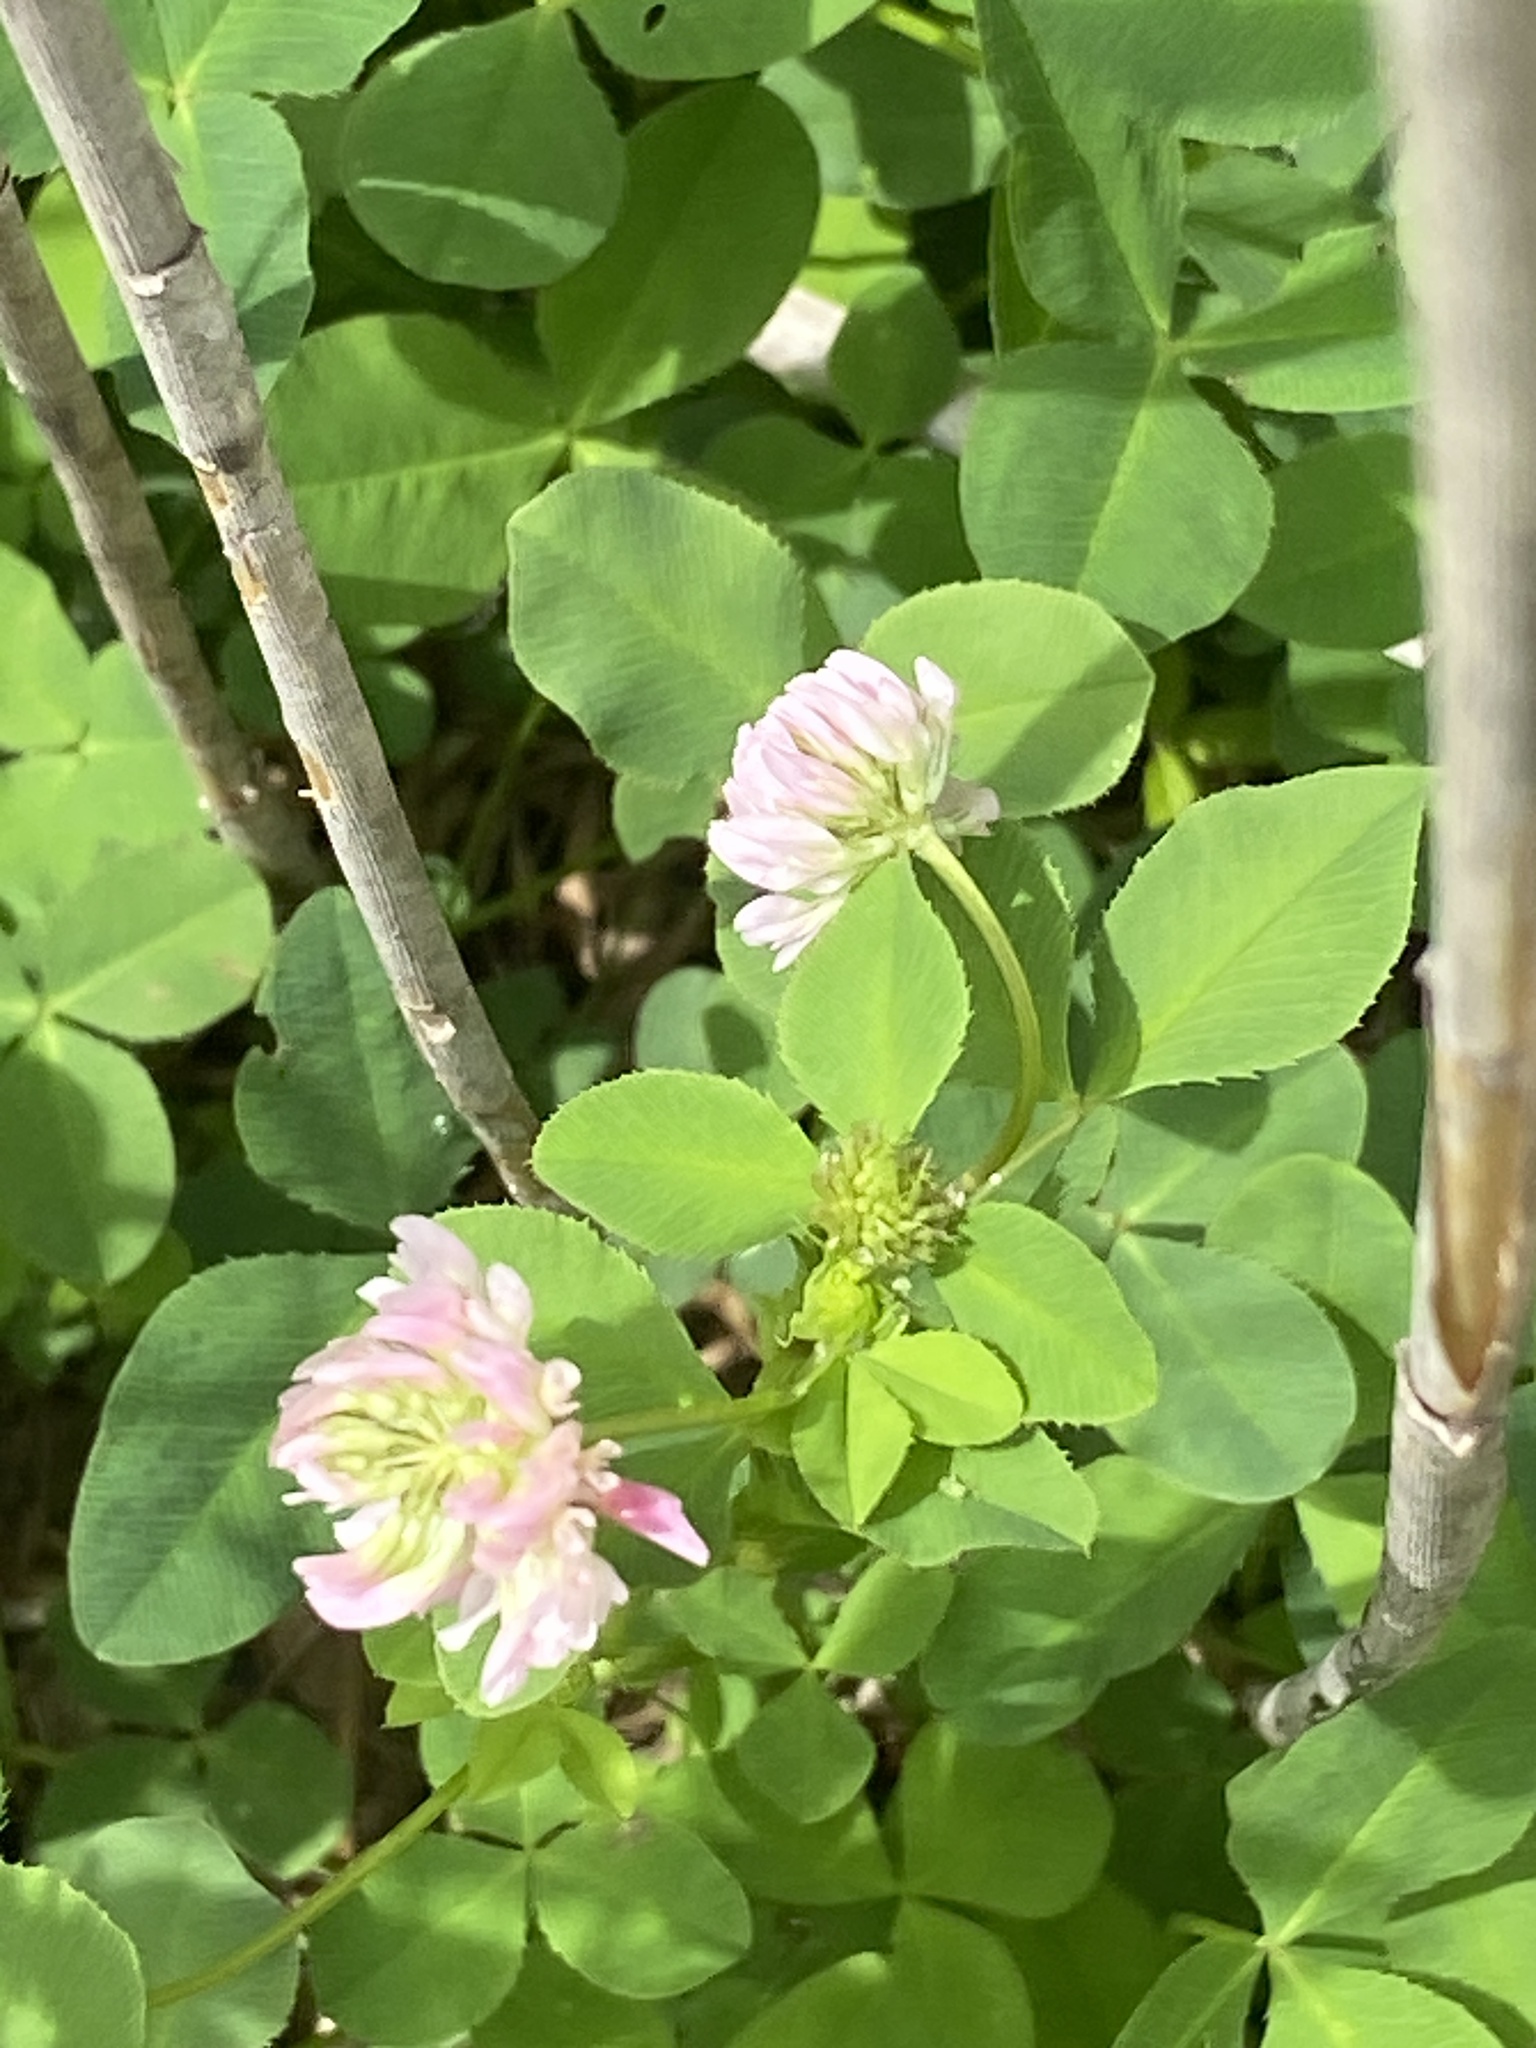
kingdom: Plantae
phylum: Tracheophyta
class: Magnoliopsida
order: Fabales
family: Fabaceae
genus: Trifolium
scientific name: Trifolium hybridum
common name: Alsike clover
